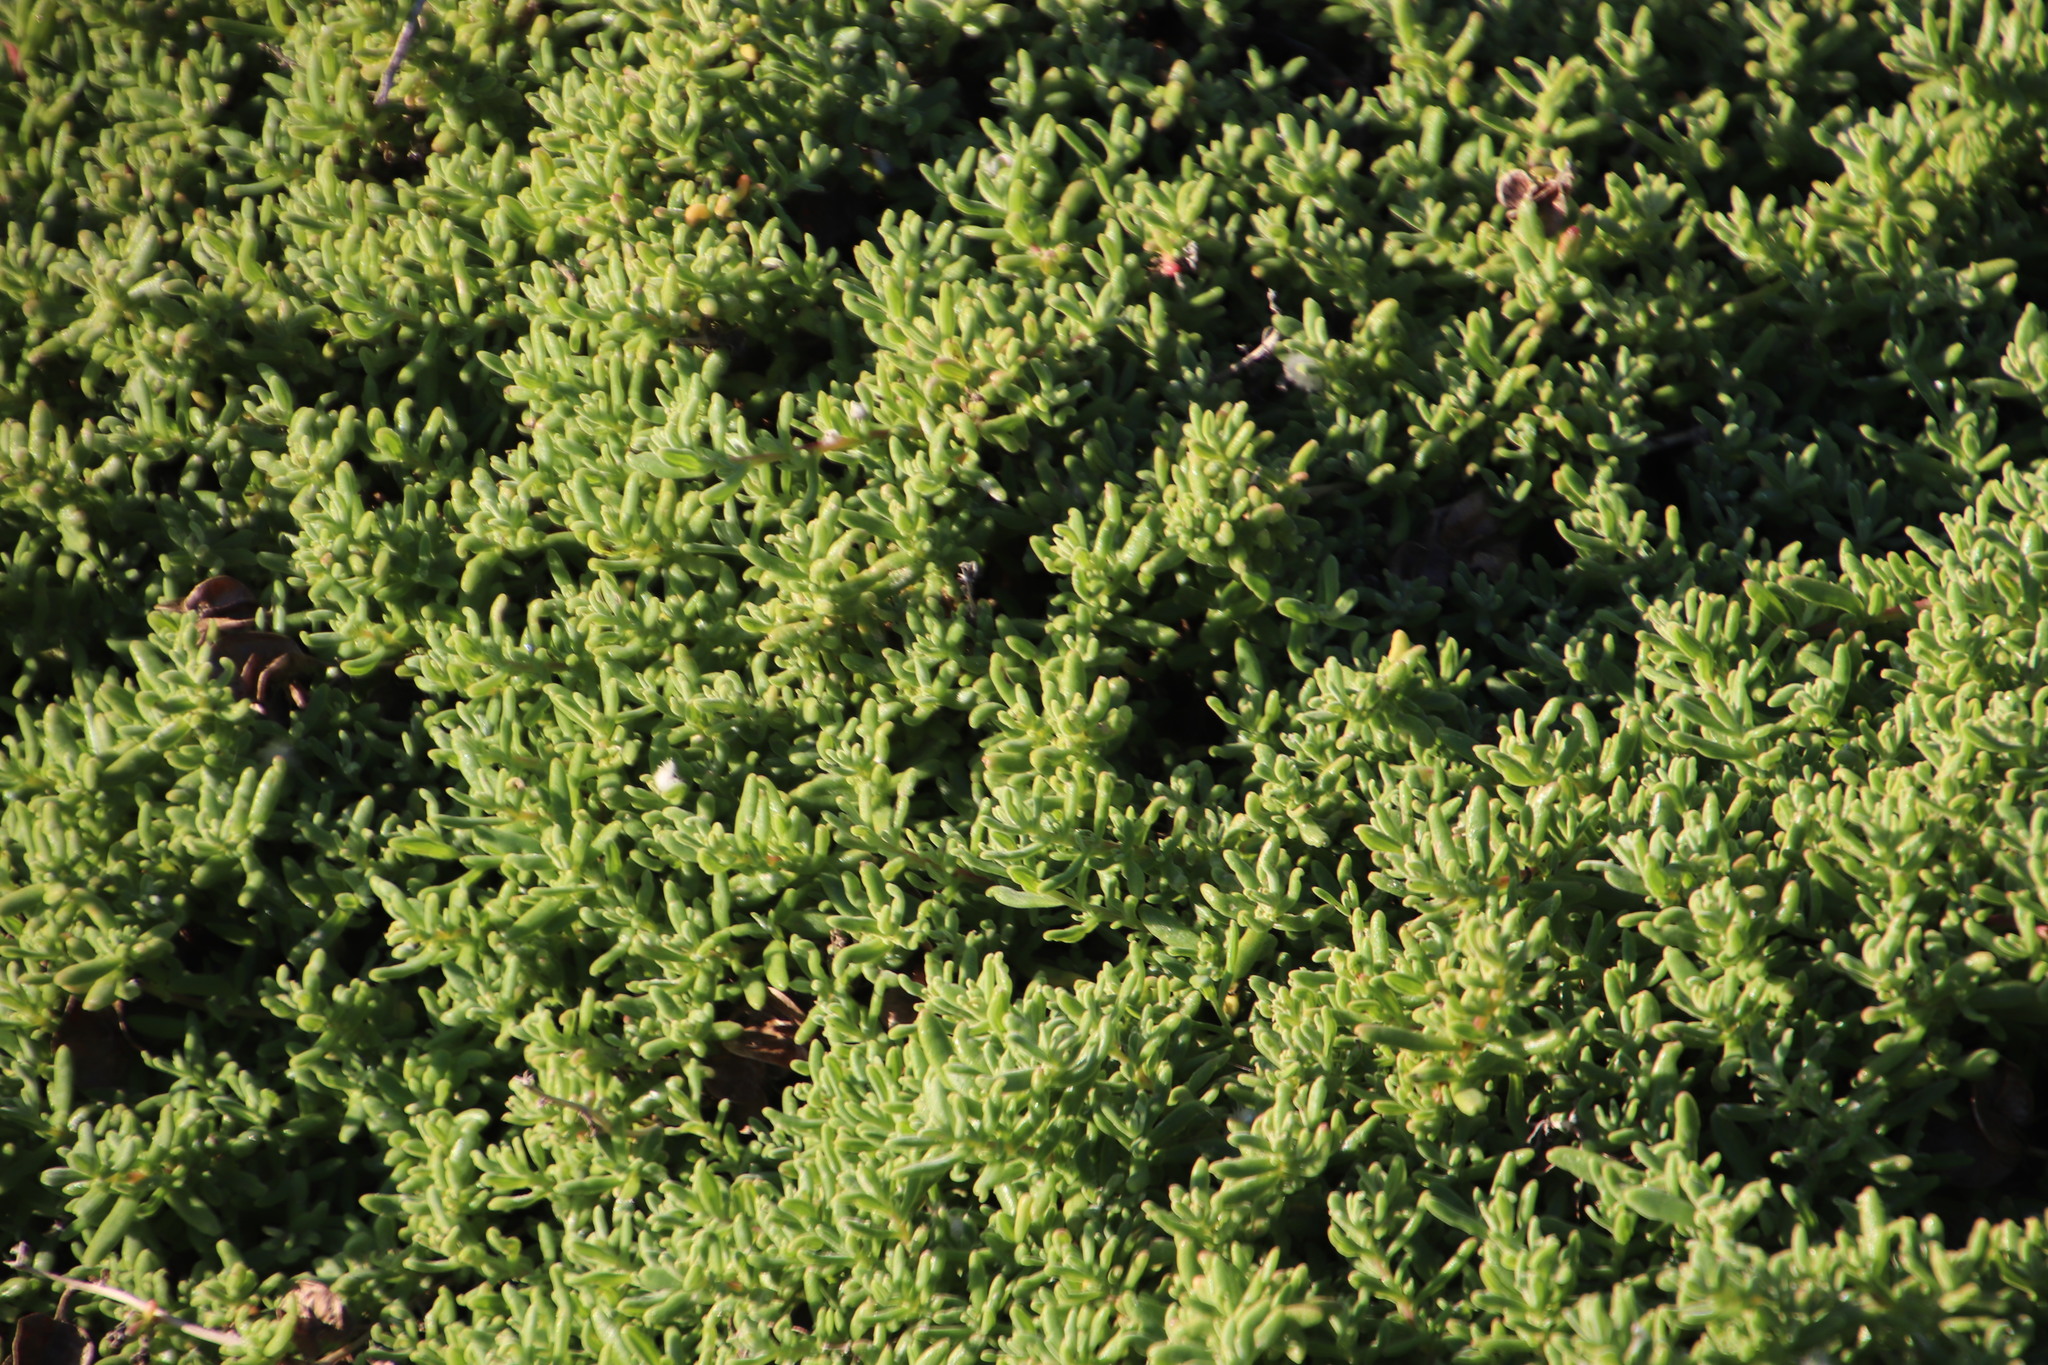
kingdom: Plantae
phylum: Tracheophyta
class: Magnoliopsida
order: Caryophyllales
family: Aizoaceae
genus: Tetragonia
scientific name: Tetragonia fruticosa
